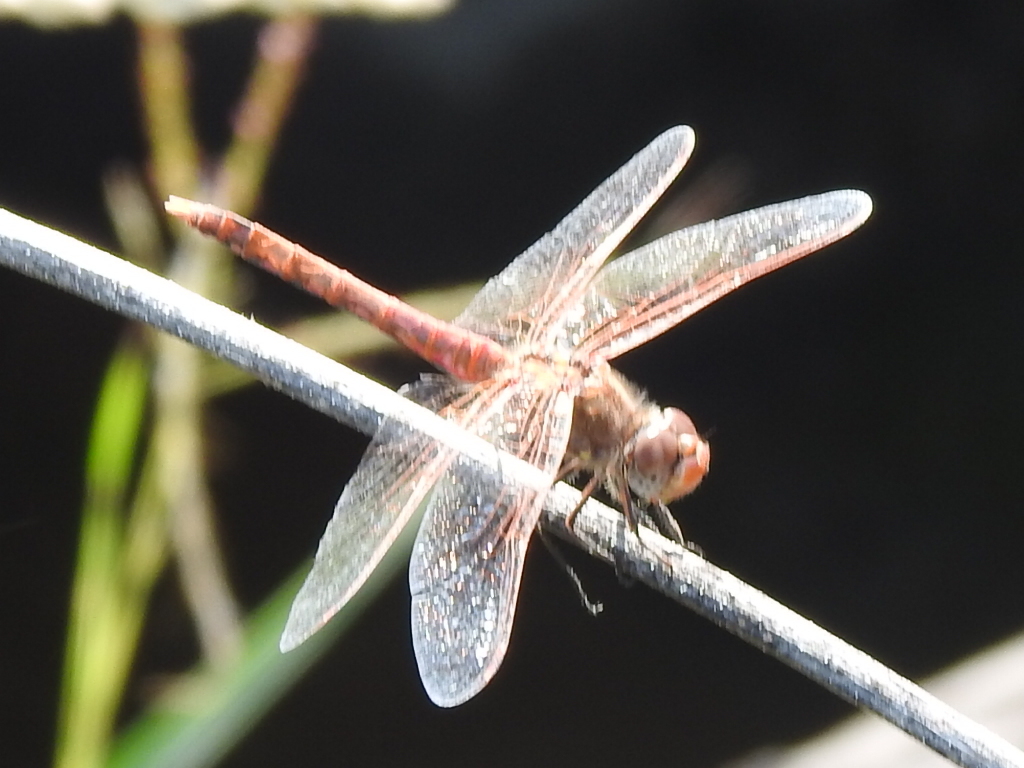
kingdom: Animalia
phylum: Arthropoda
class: Insecta
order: Odonata
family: Libellulidae
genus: Sympetrum
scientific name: Sympetrum corruptum
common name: Variegated meadowhawk
